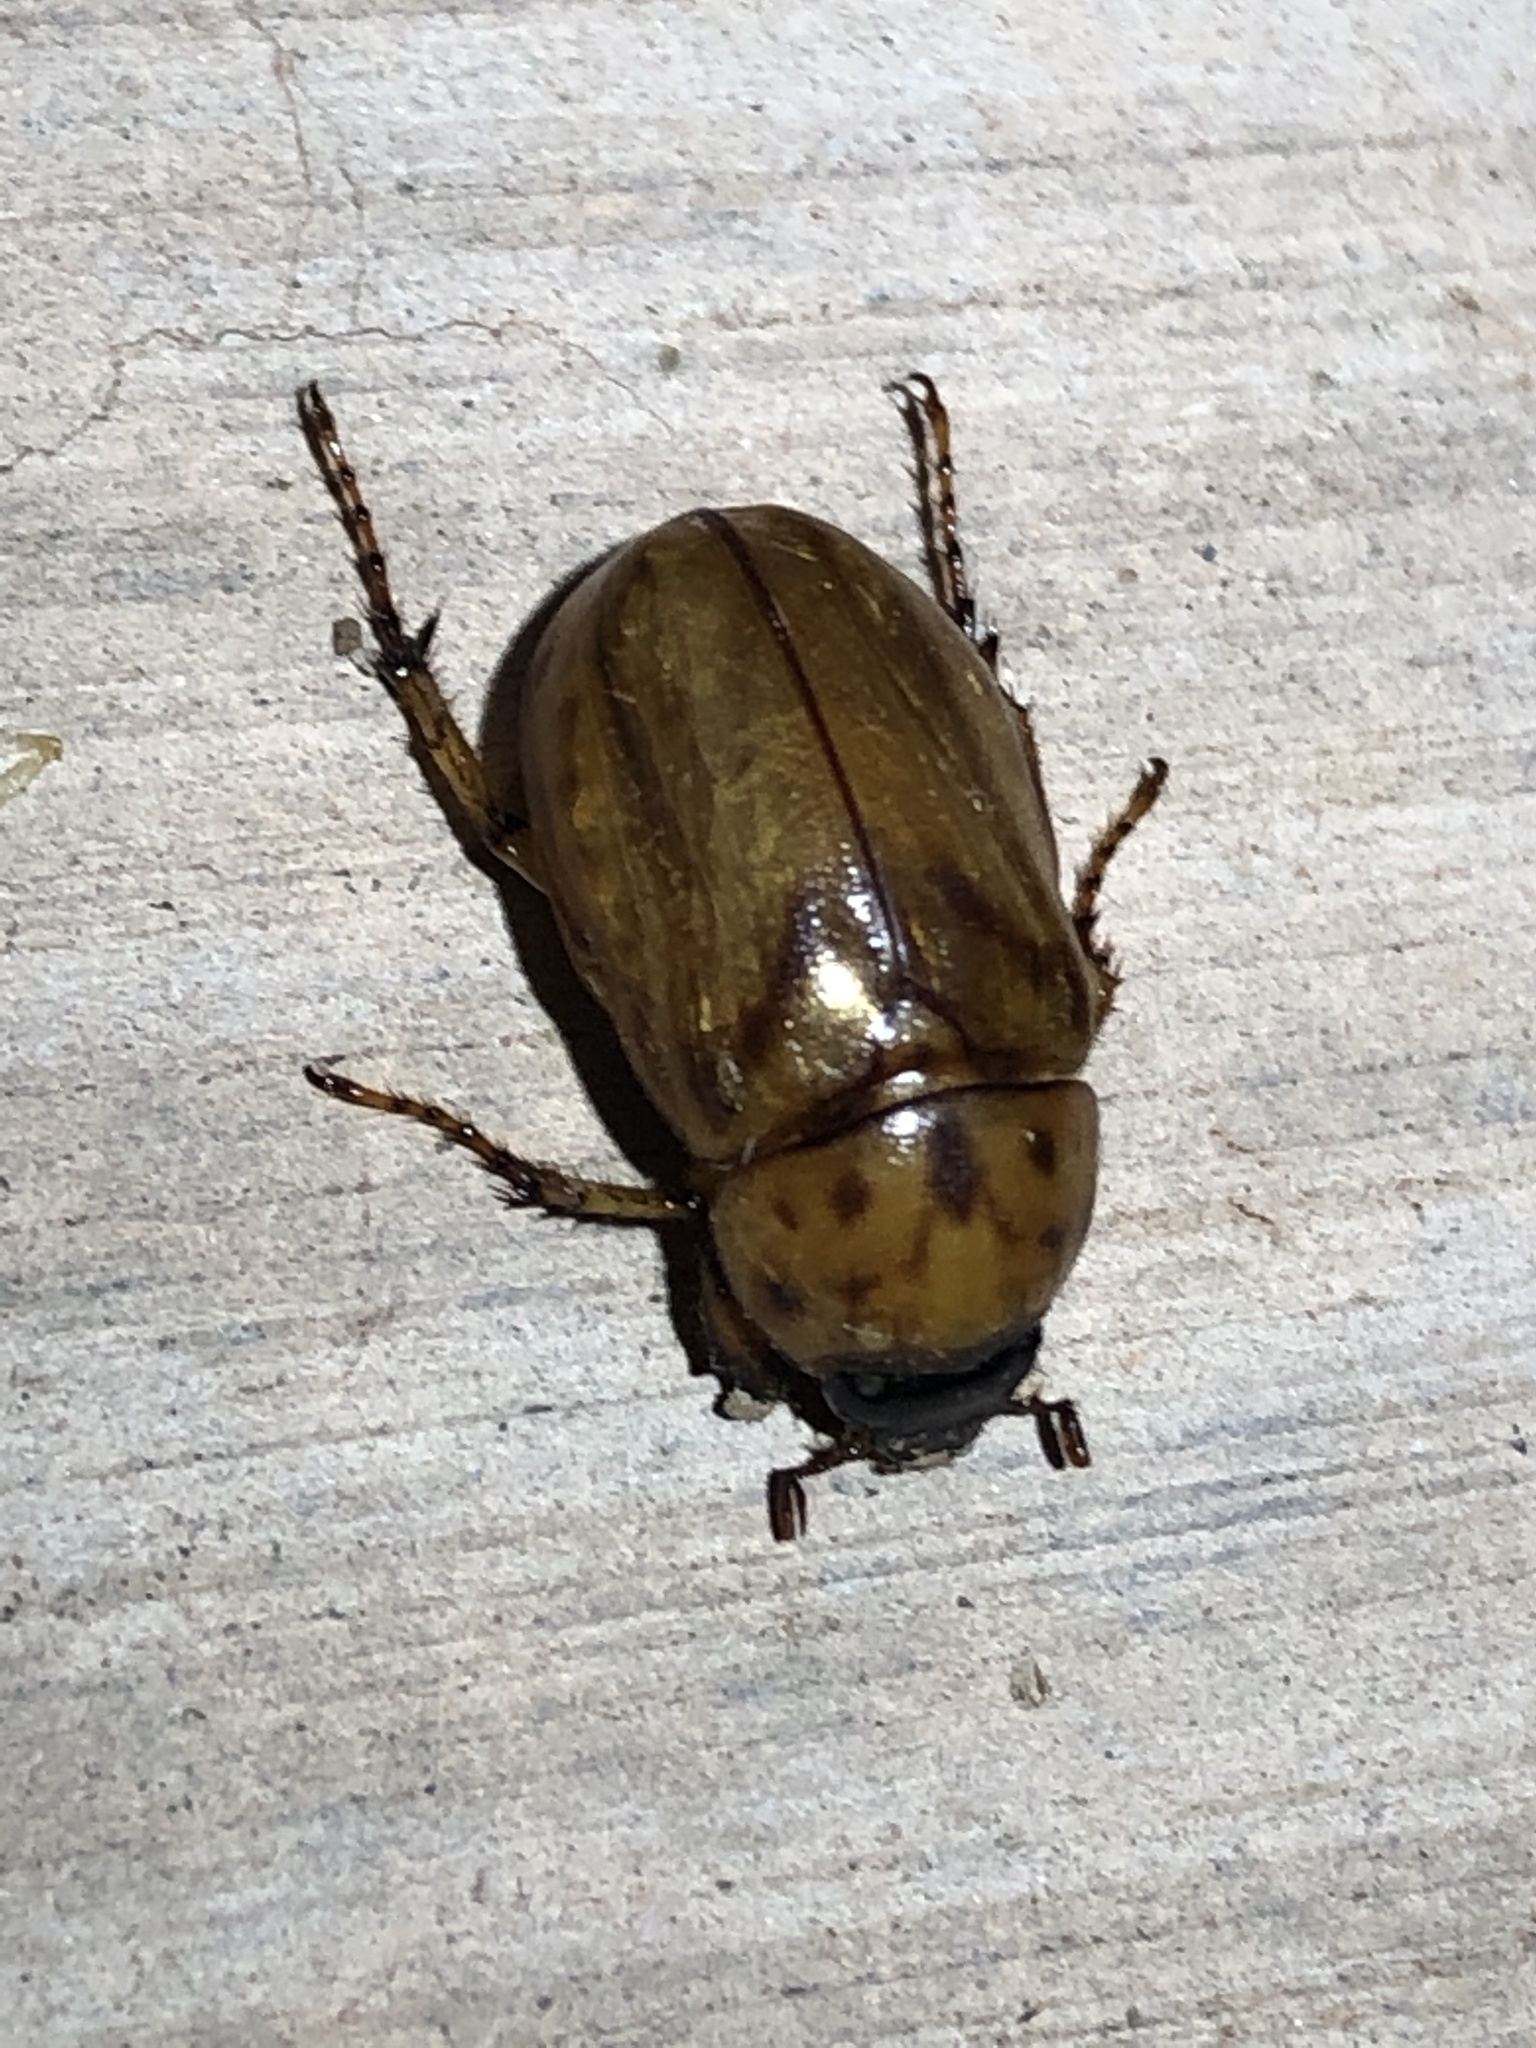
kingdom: Animalia
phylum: Arthropoda
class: Insecta
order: Coleoptera
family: Scarabaeidae
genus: Cyclocephala
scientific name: Cyclocephala lunulata
